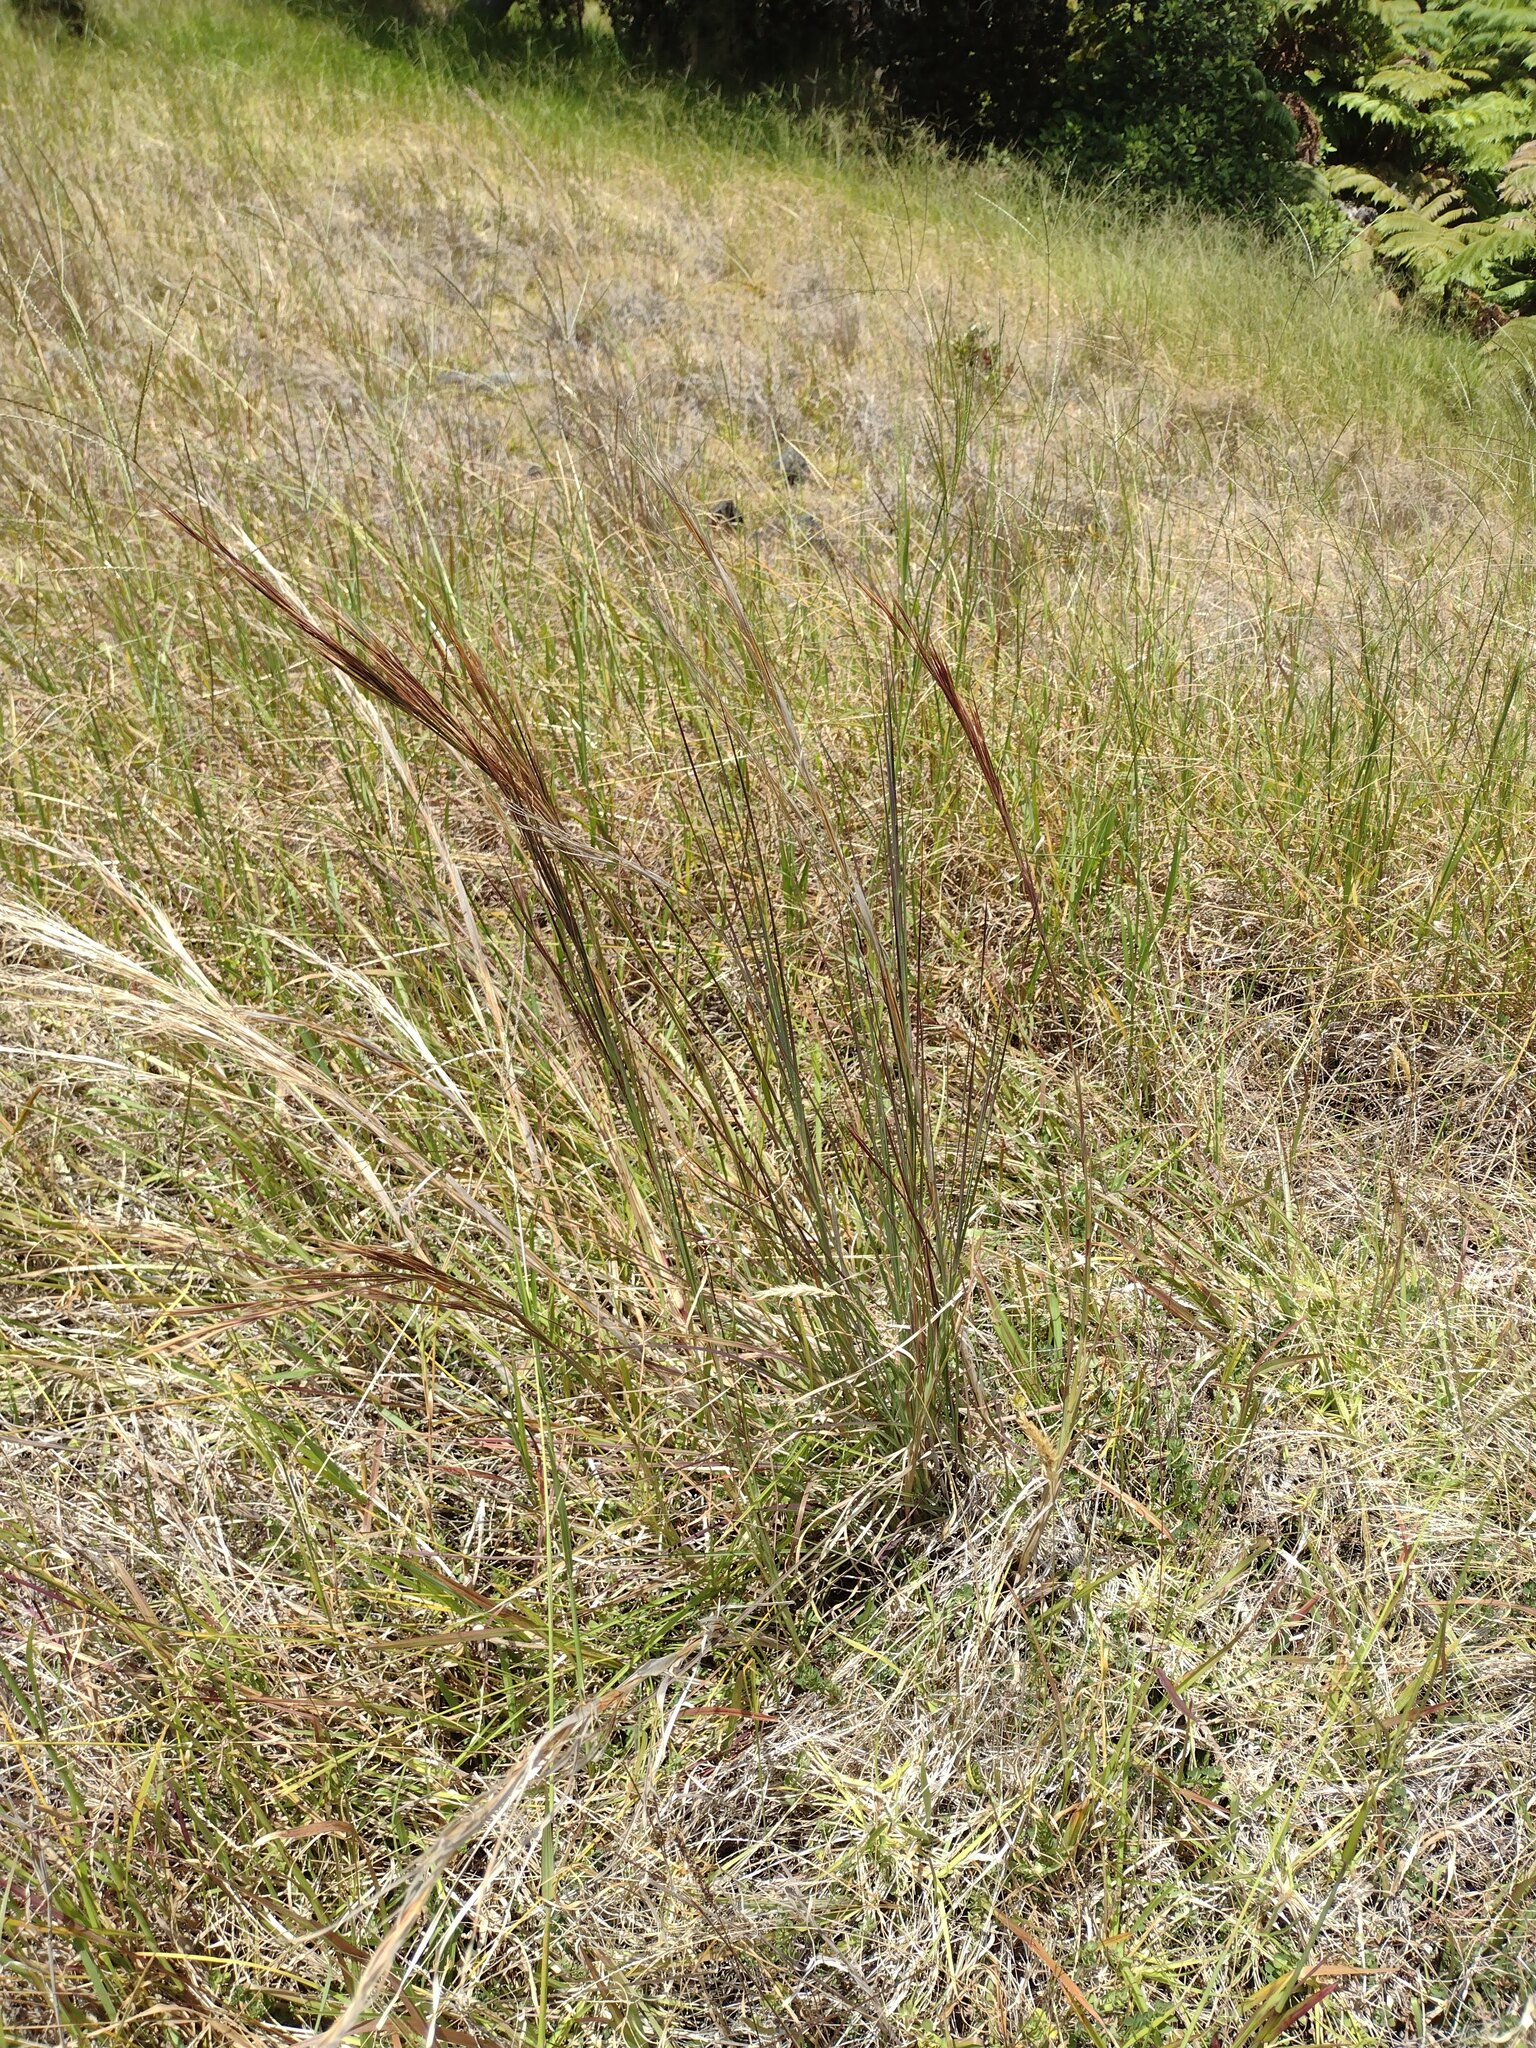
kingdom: Plantae
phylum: Tracheophyta
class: Liliopsida
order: Poales
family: Poaceae
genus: Andropogon
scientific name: Andropogon virginicus
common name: Broomsedge bluestem
